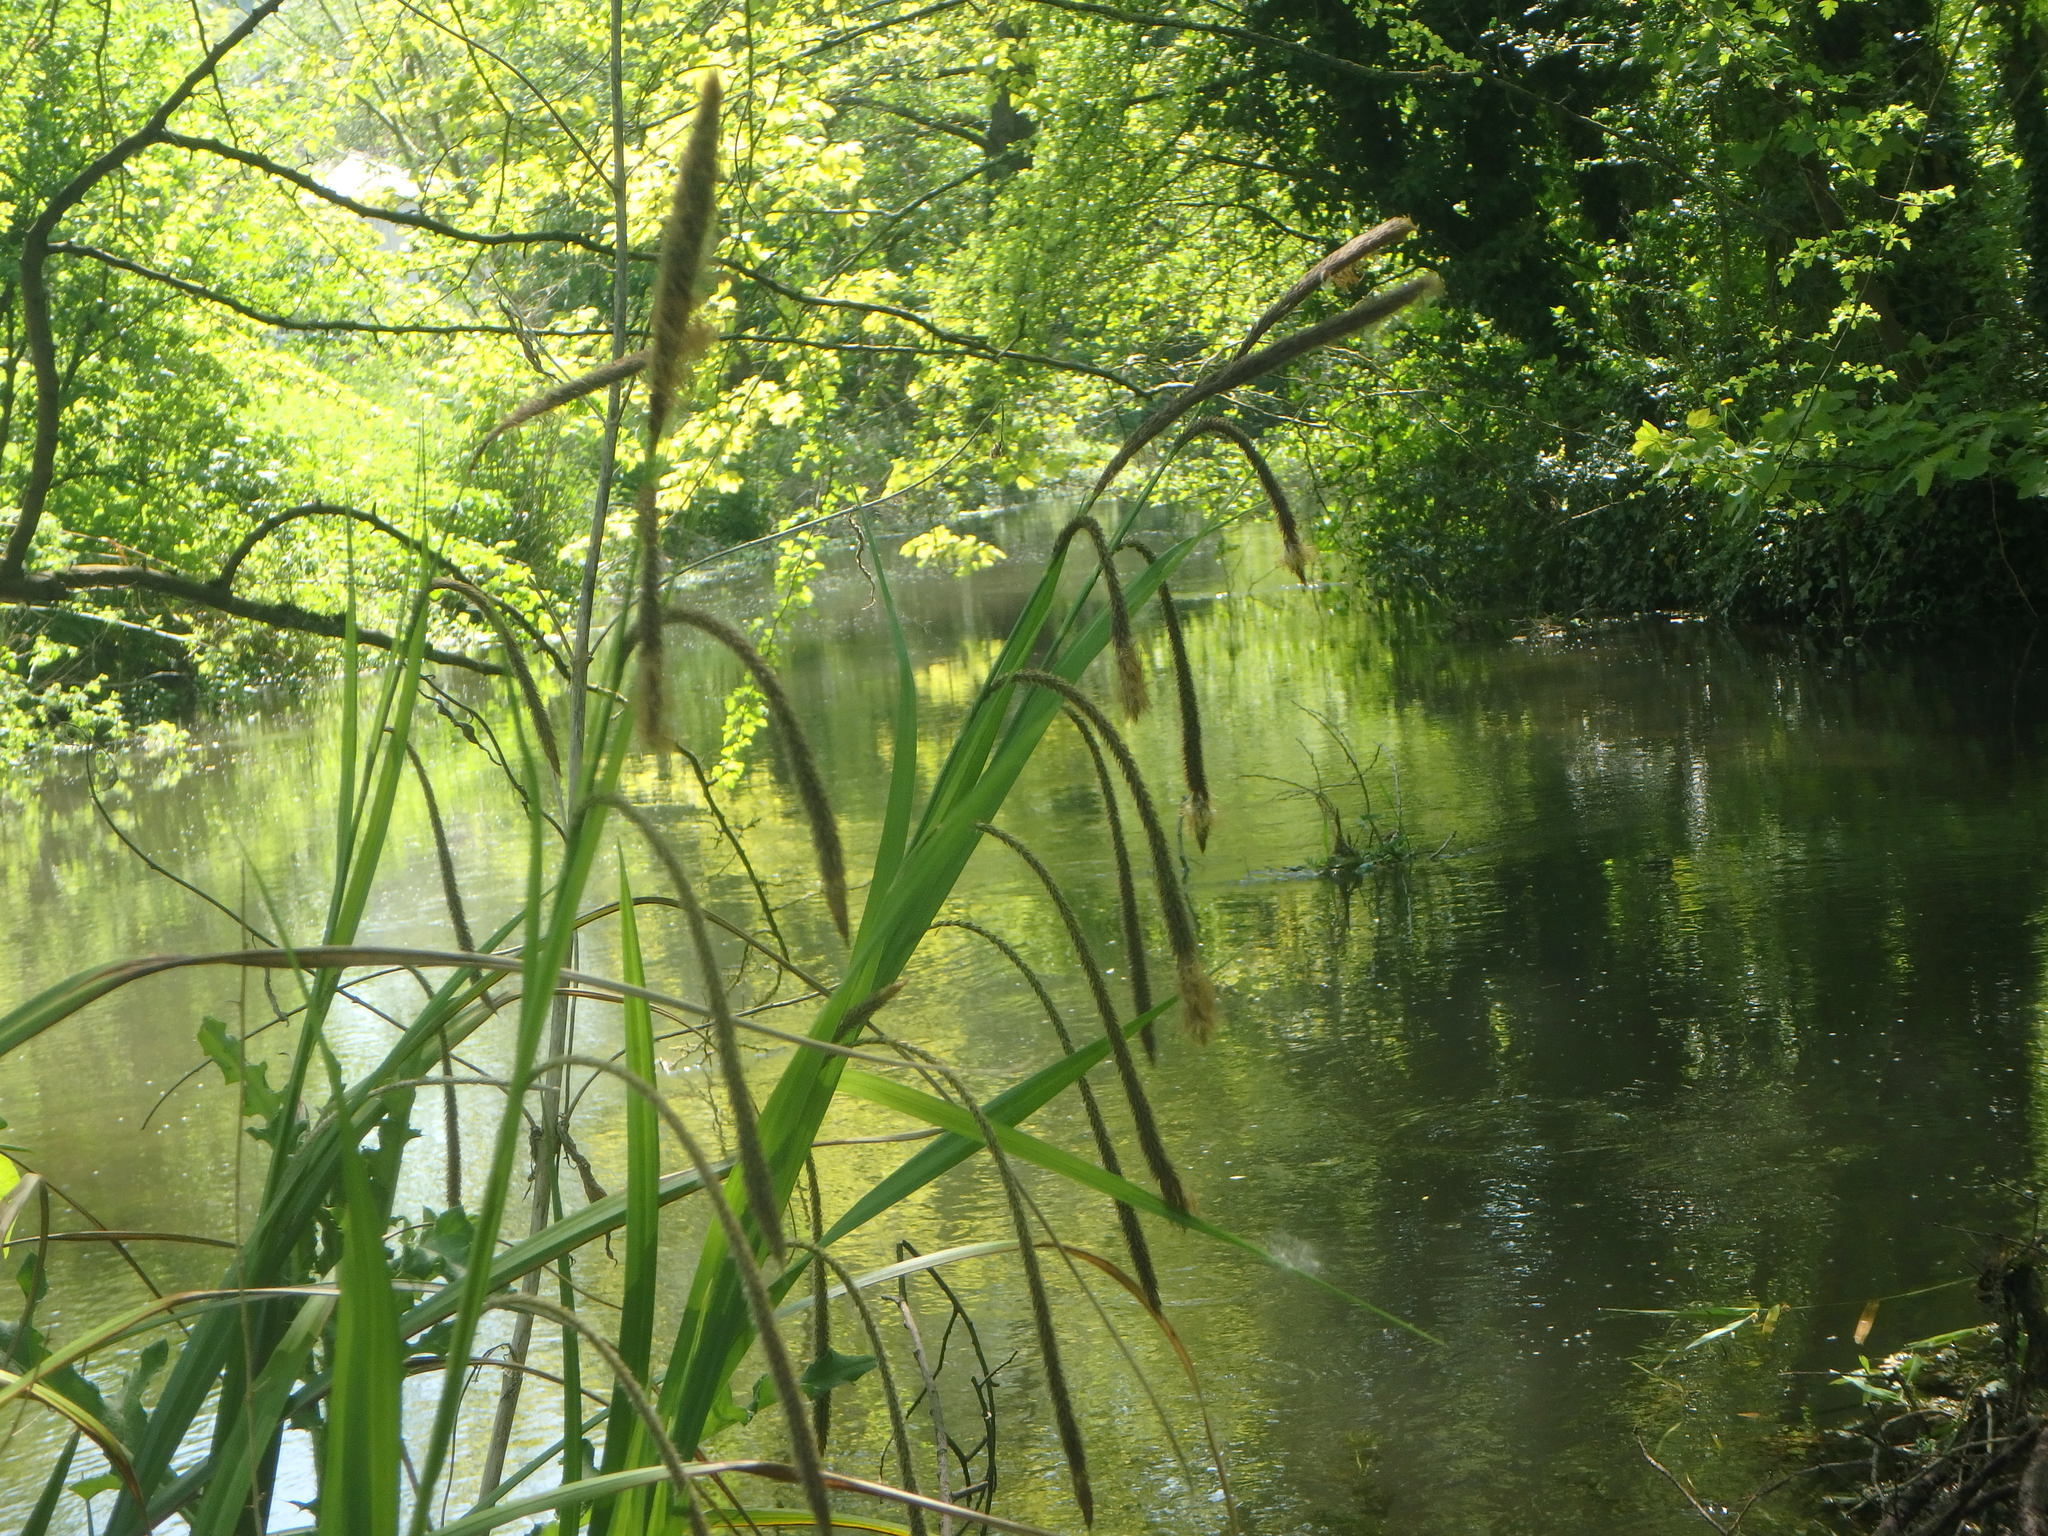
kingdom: Plantae
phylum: Tracheophyta
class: Liliopsida
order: Poales
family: Cyperaceae
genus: Carex
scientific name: Carex pendula
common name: Pendulous sedge
